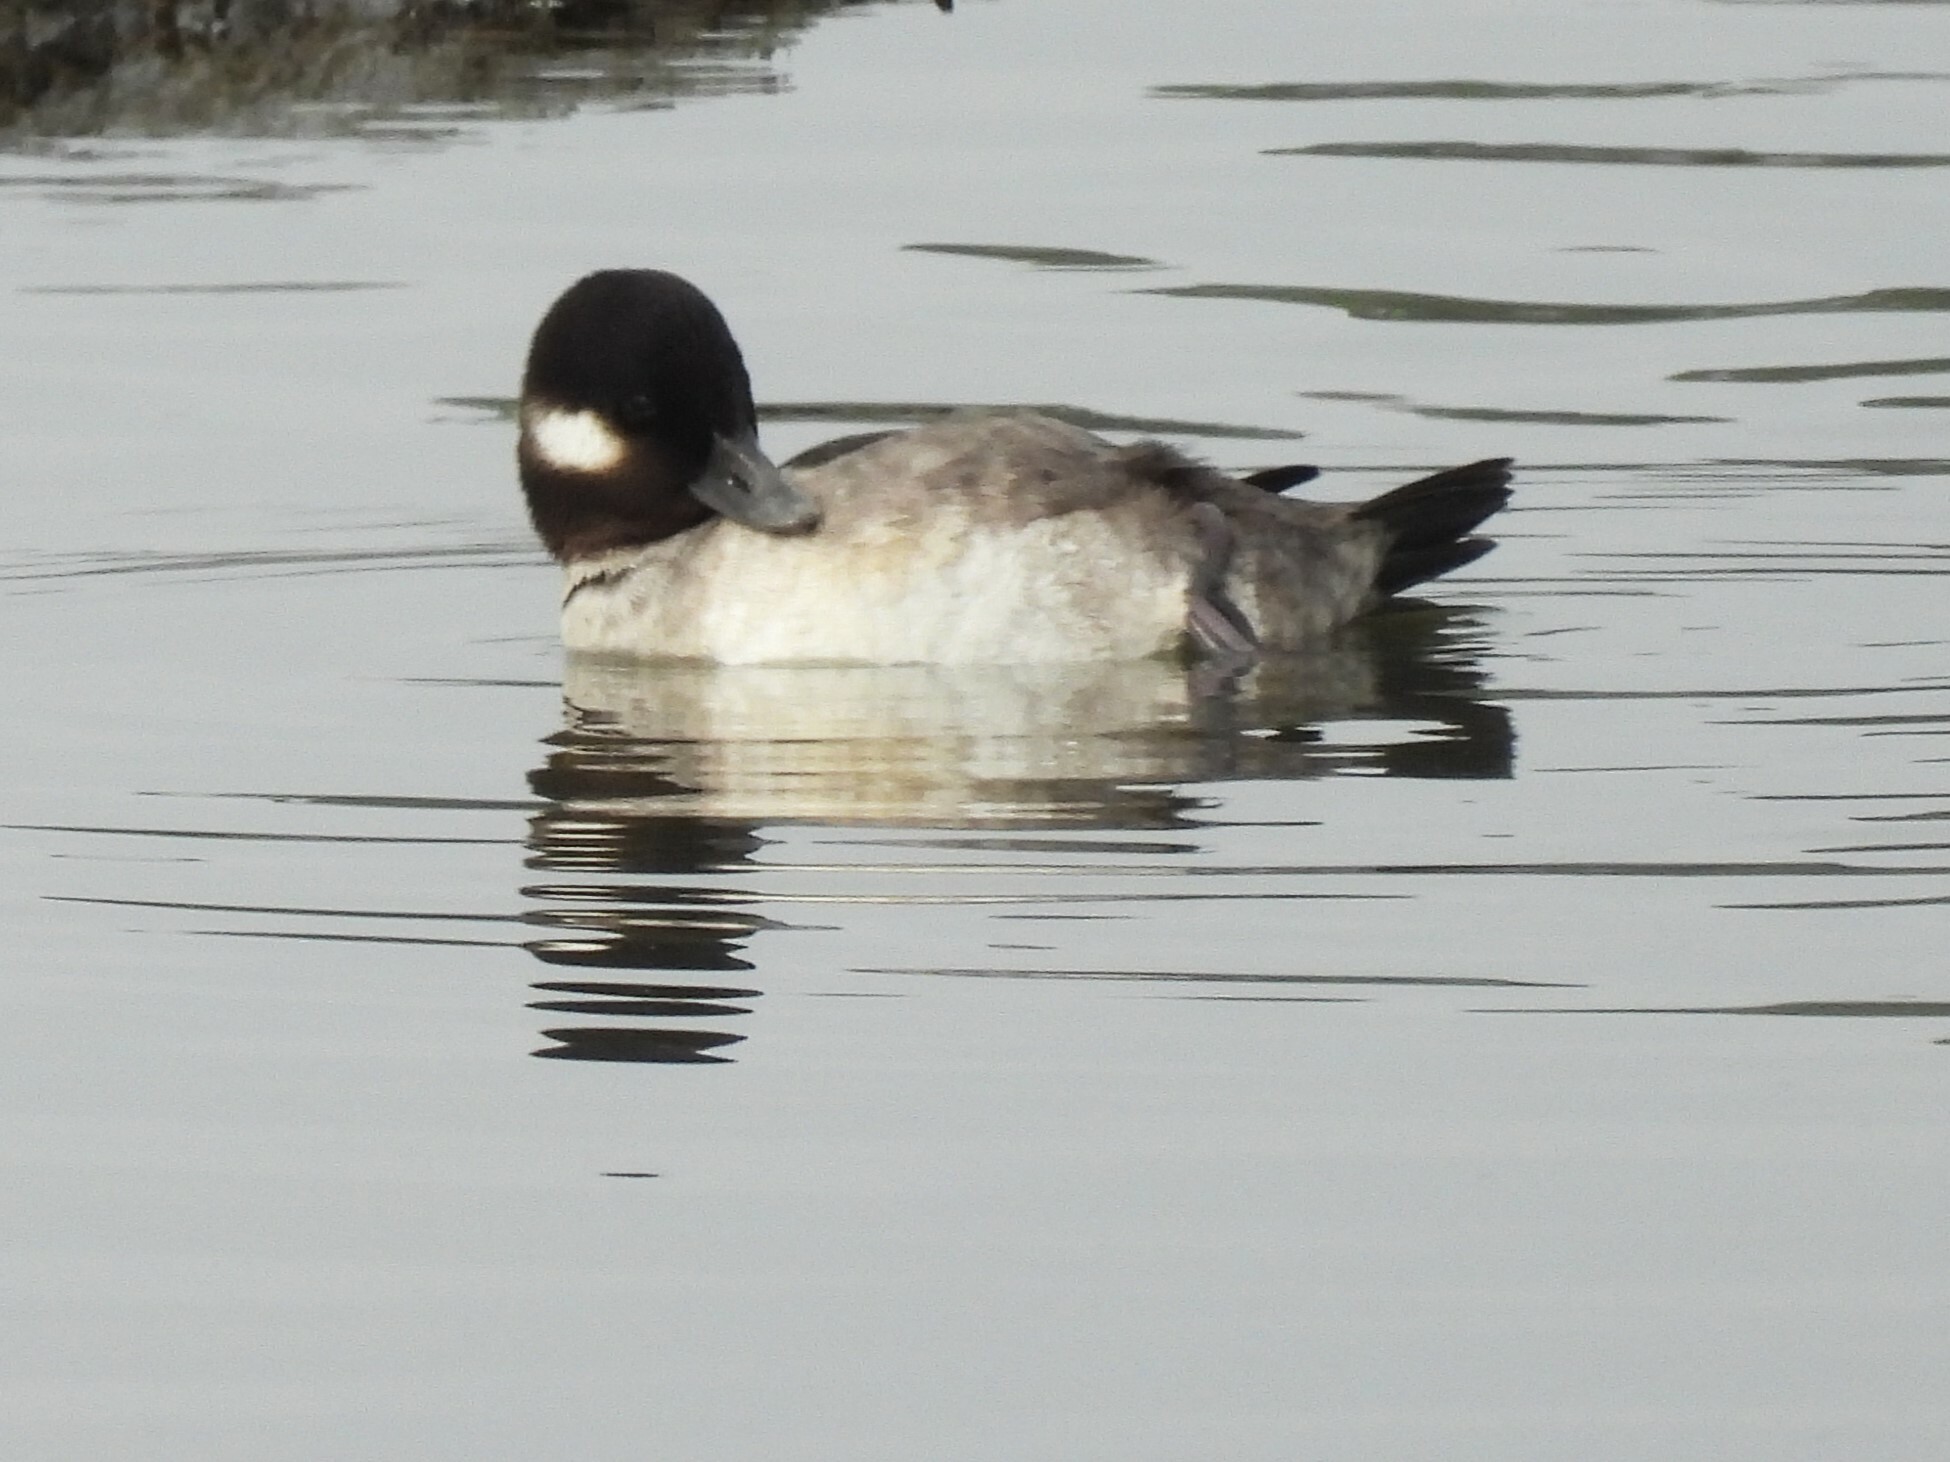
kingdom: Animalia
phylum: Chordata
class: Aves
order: Anseriformes
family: Anatidae
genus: Bucephala
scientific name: Bucephala albeola
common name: Bufflehead
